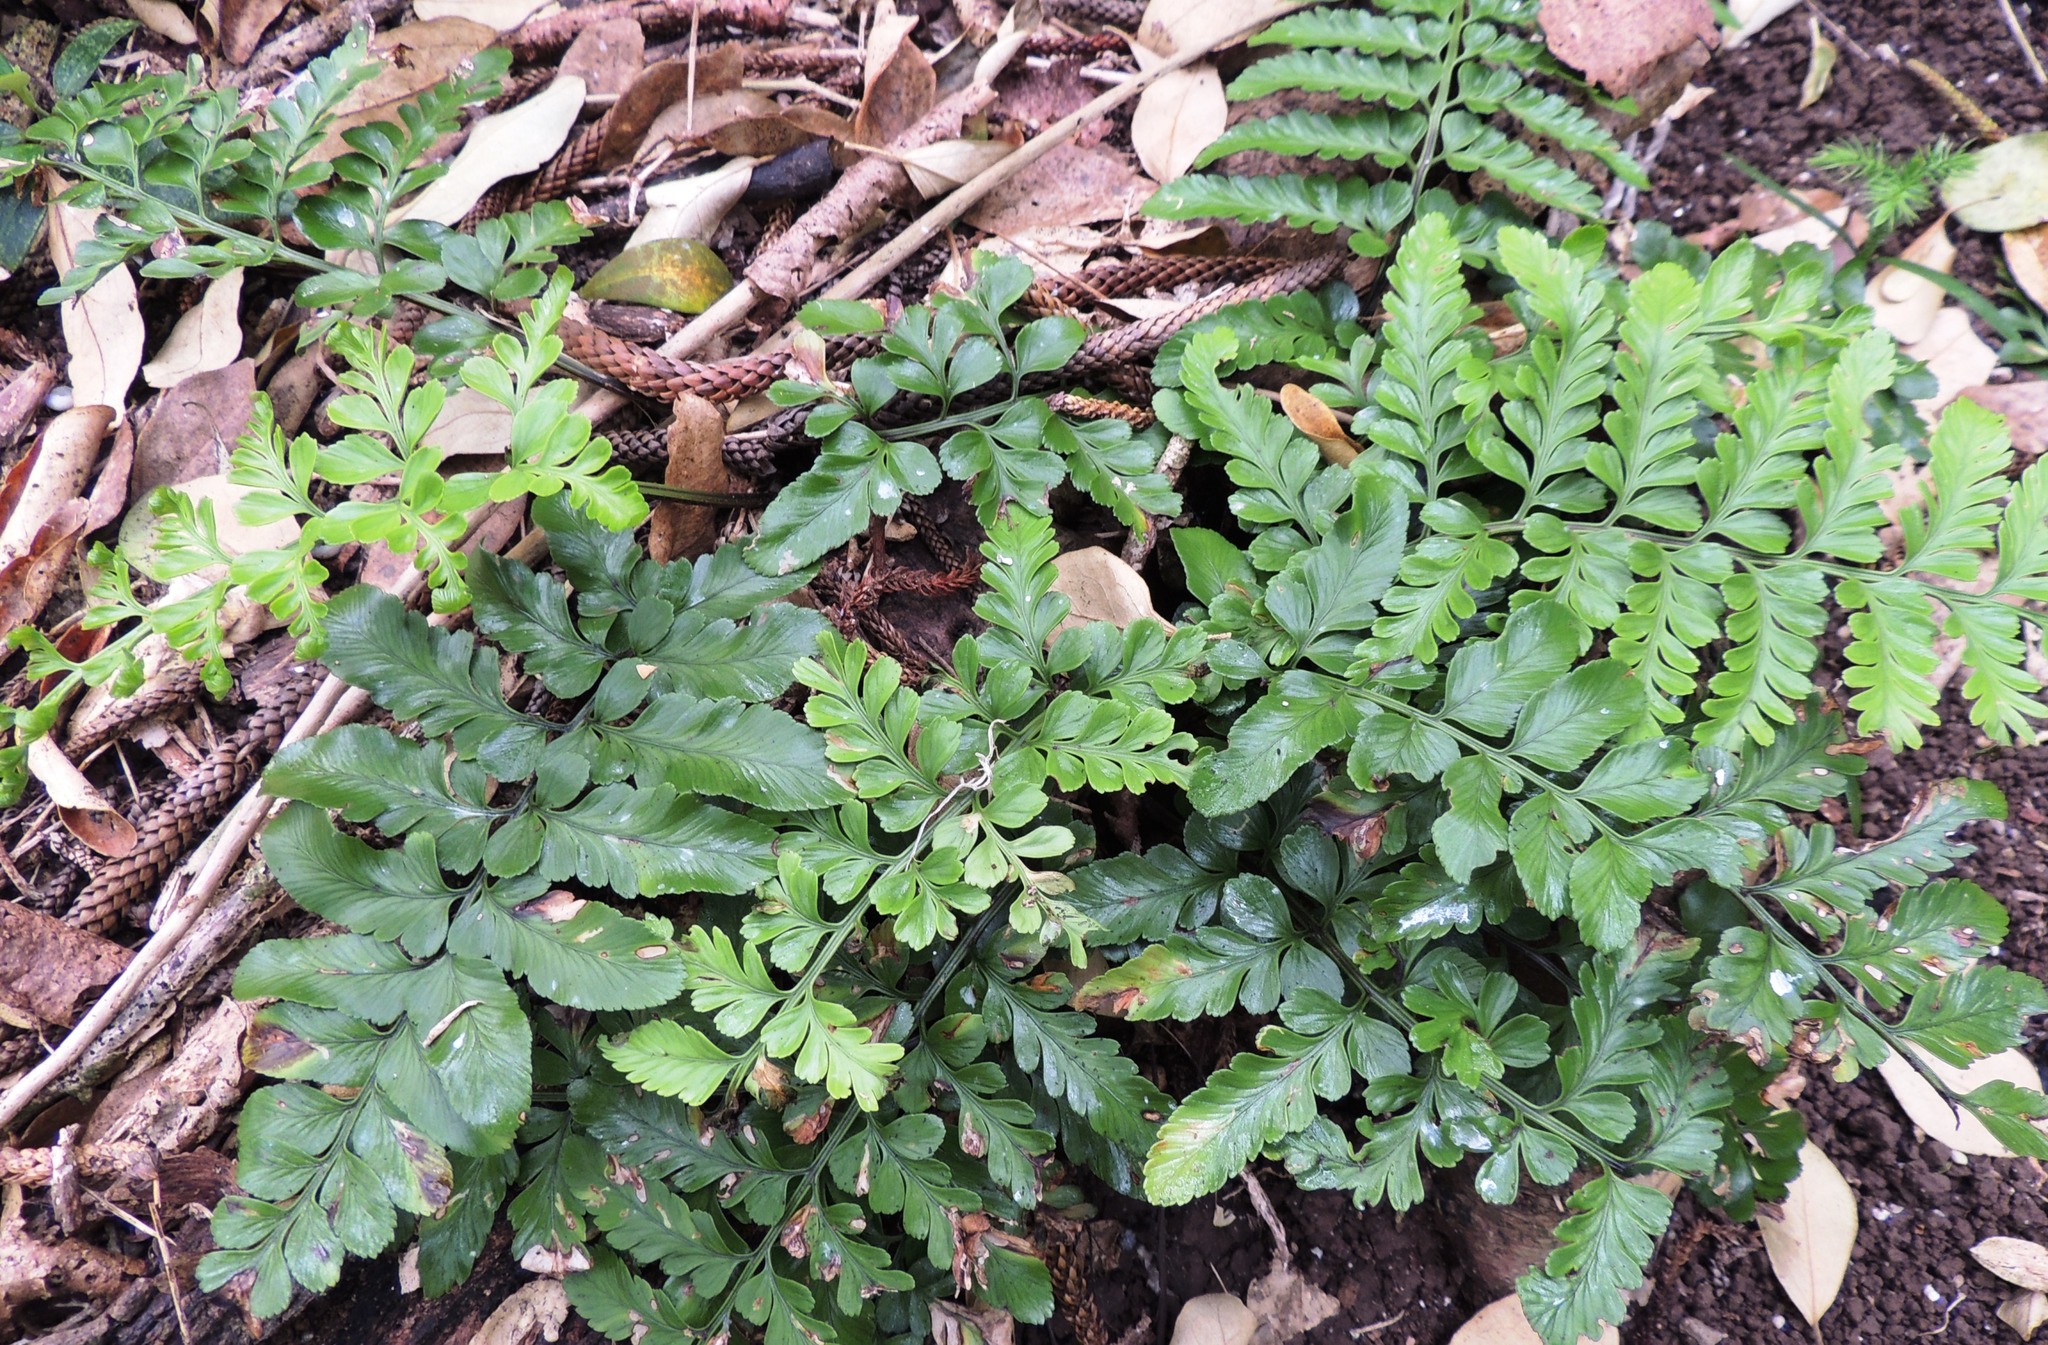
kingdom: Plantae
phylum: Tracheophyta
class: Polypodiopsida
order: Polypodiales
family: Aspleniaceae
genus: Asplenium
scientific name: Asplenium difforme
